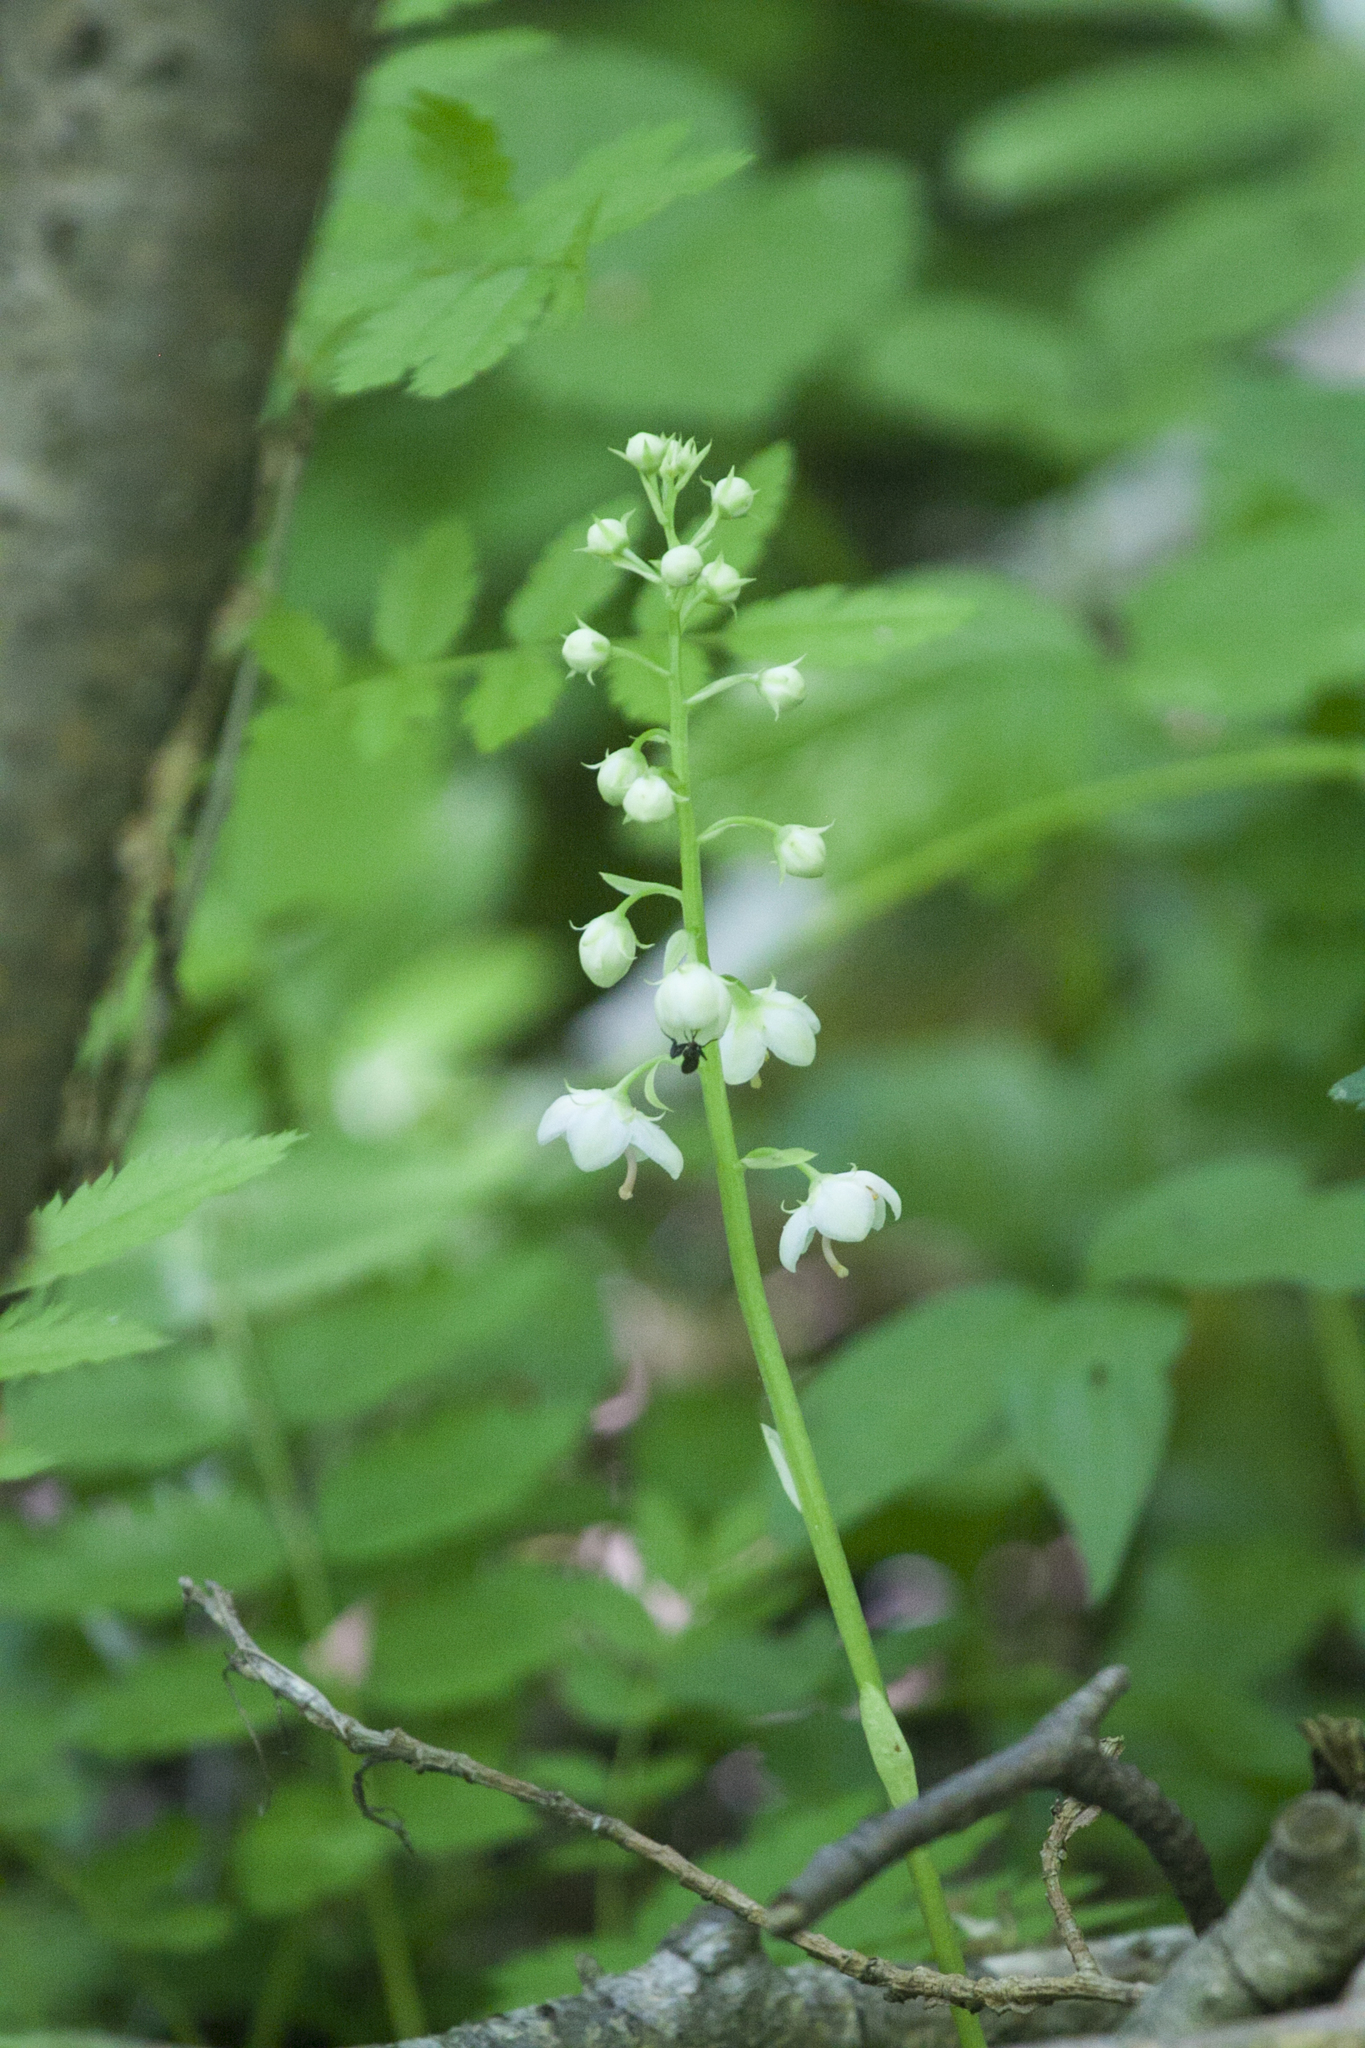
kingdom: Plantae
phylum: Tracheophyta
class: Magnoliopsida
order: Ericales
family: Ericaceae
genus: Pyrola
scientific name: Pyrola rotundifolia
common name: Round-leaved wintergreen
